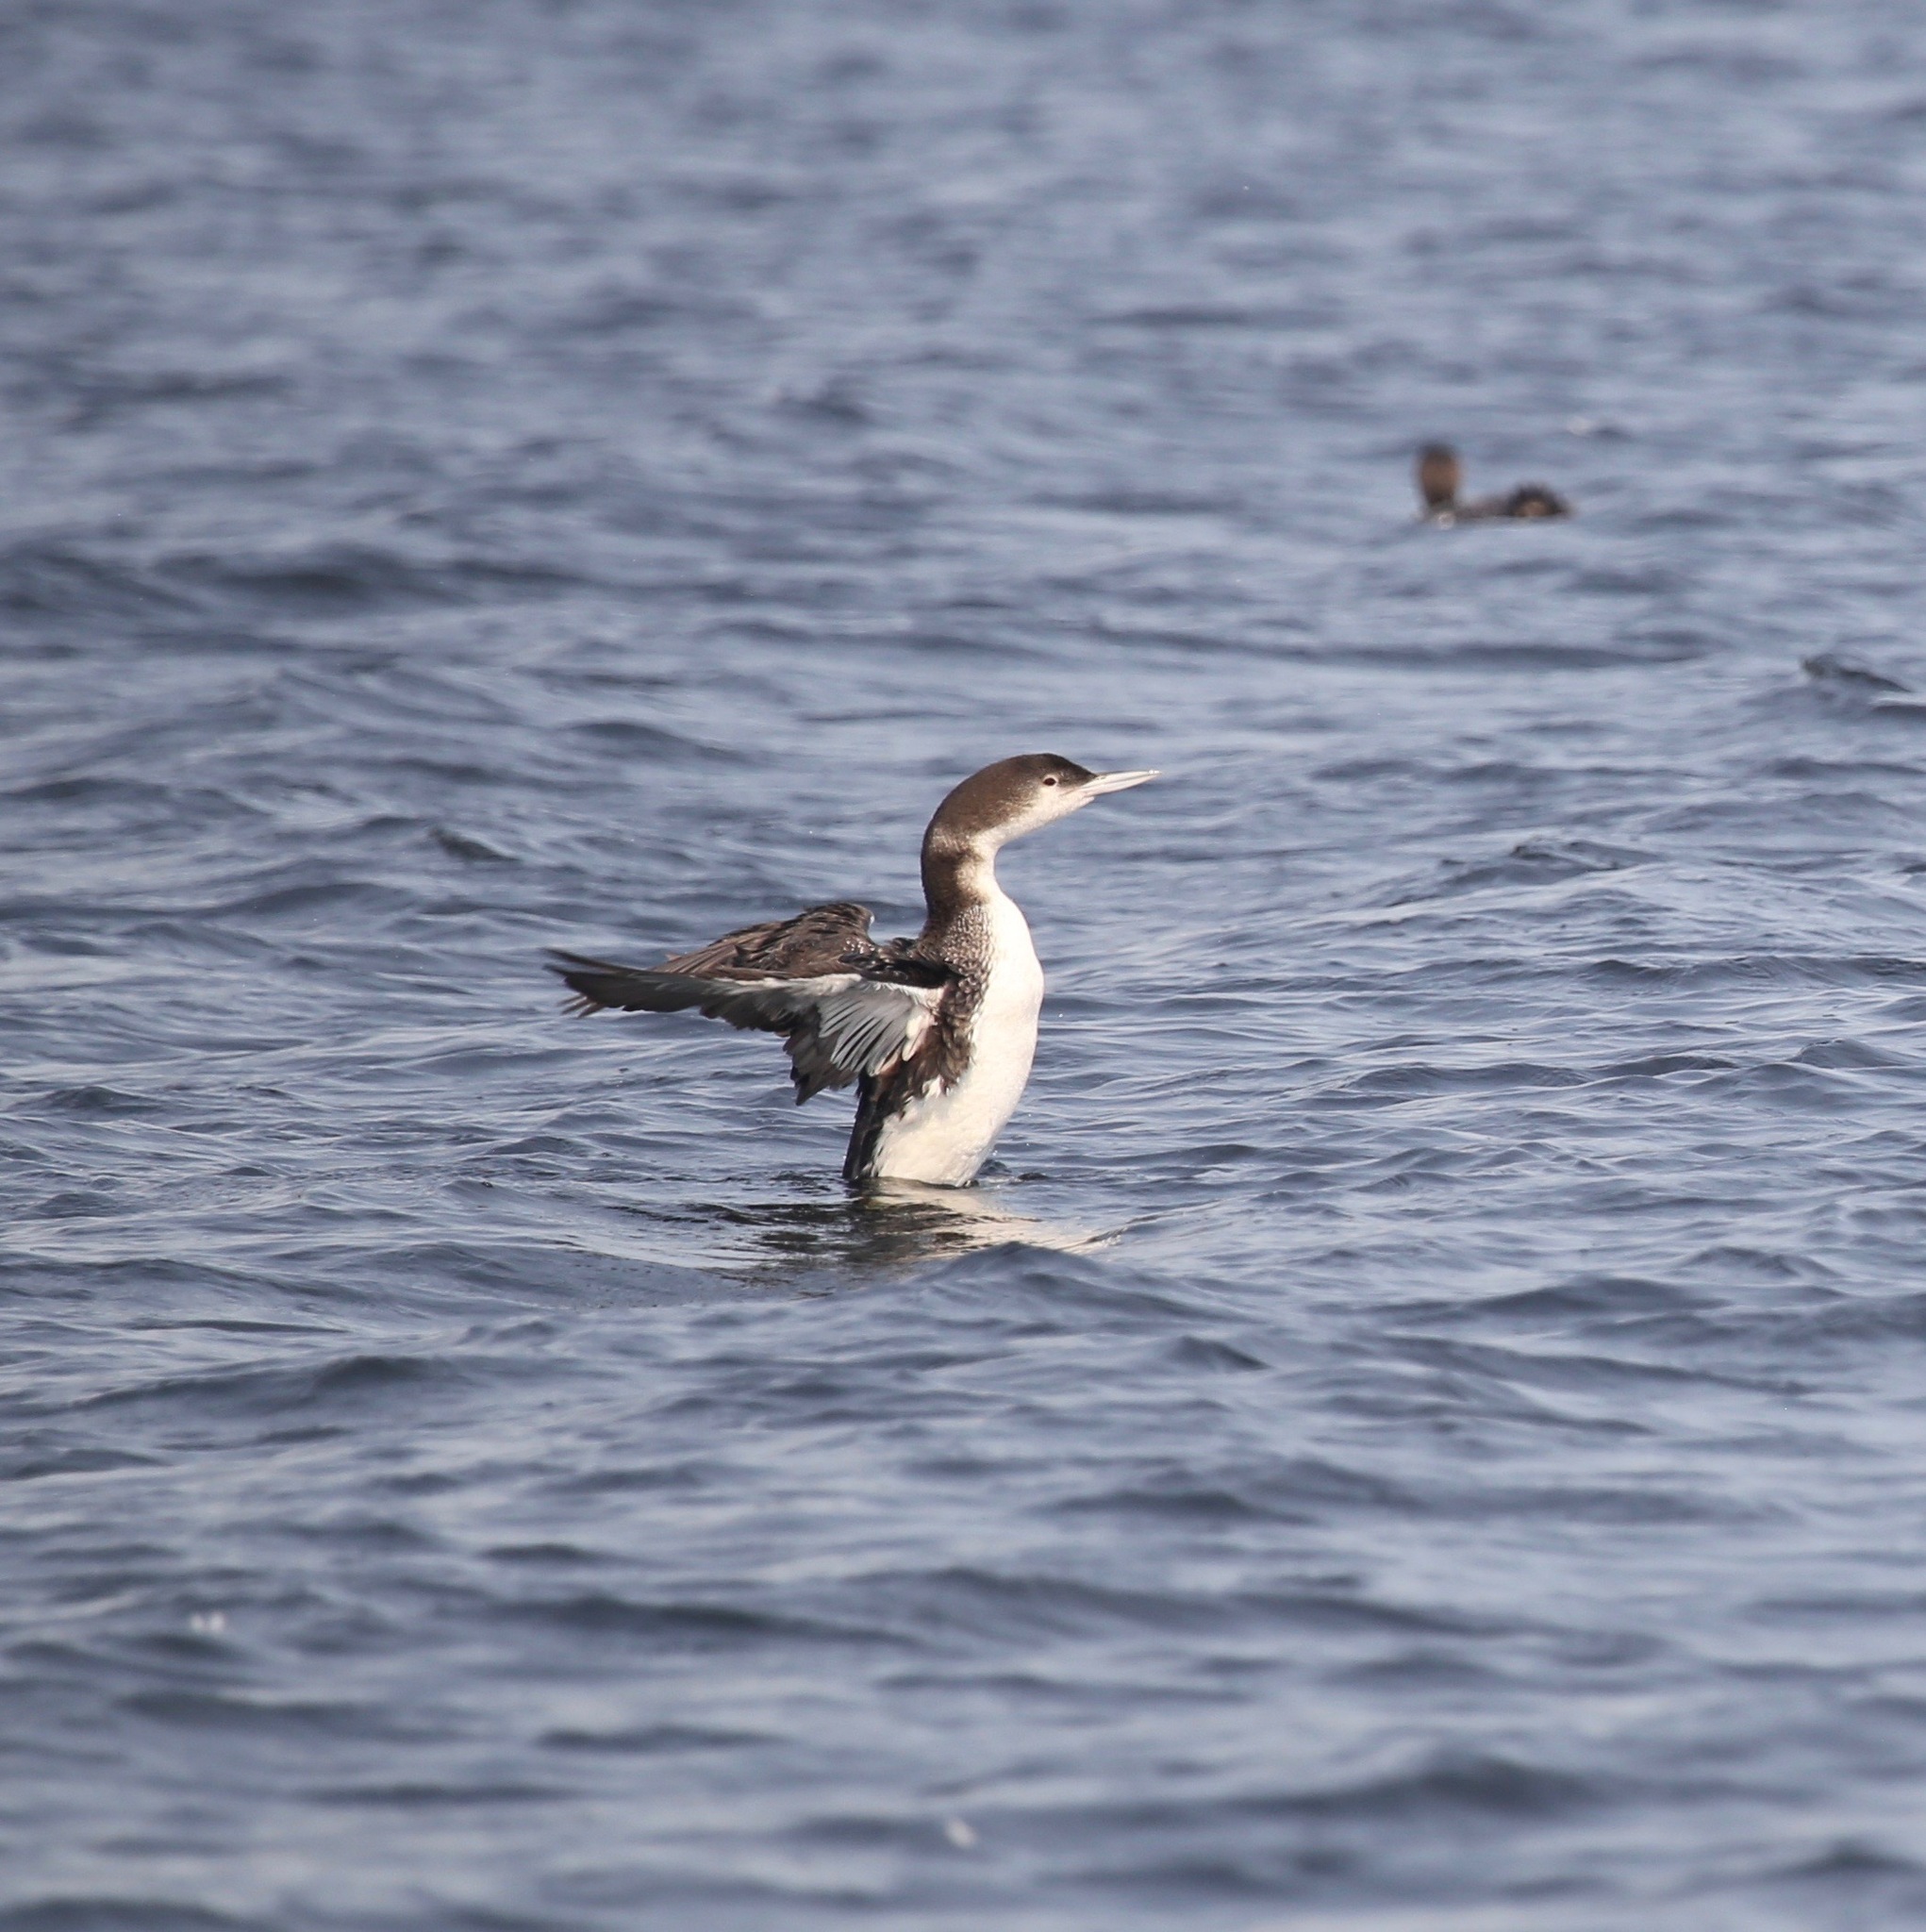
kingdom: Animalia
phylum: Chordata
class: Aves
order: Gaviiformes
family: Gaviidae
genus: Gavia
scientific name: Gavia immer
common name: Common loon
